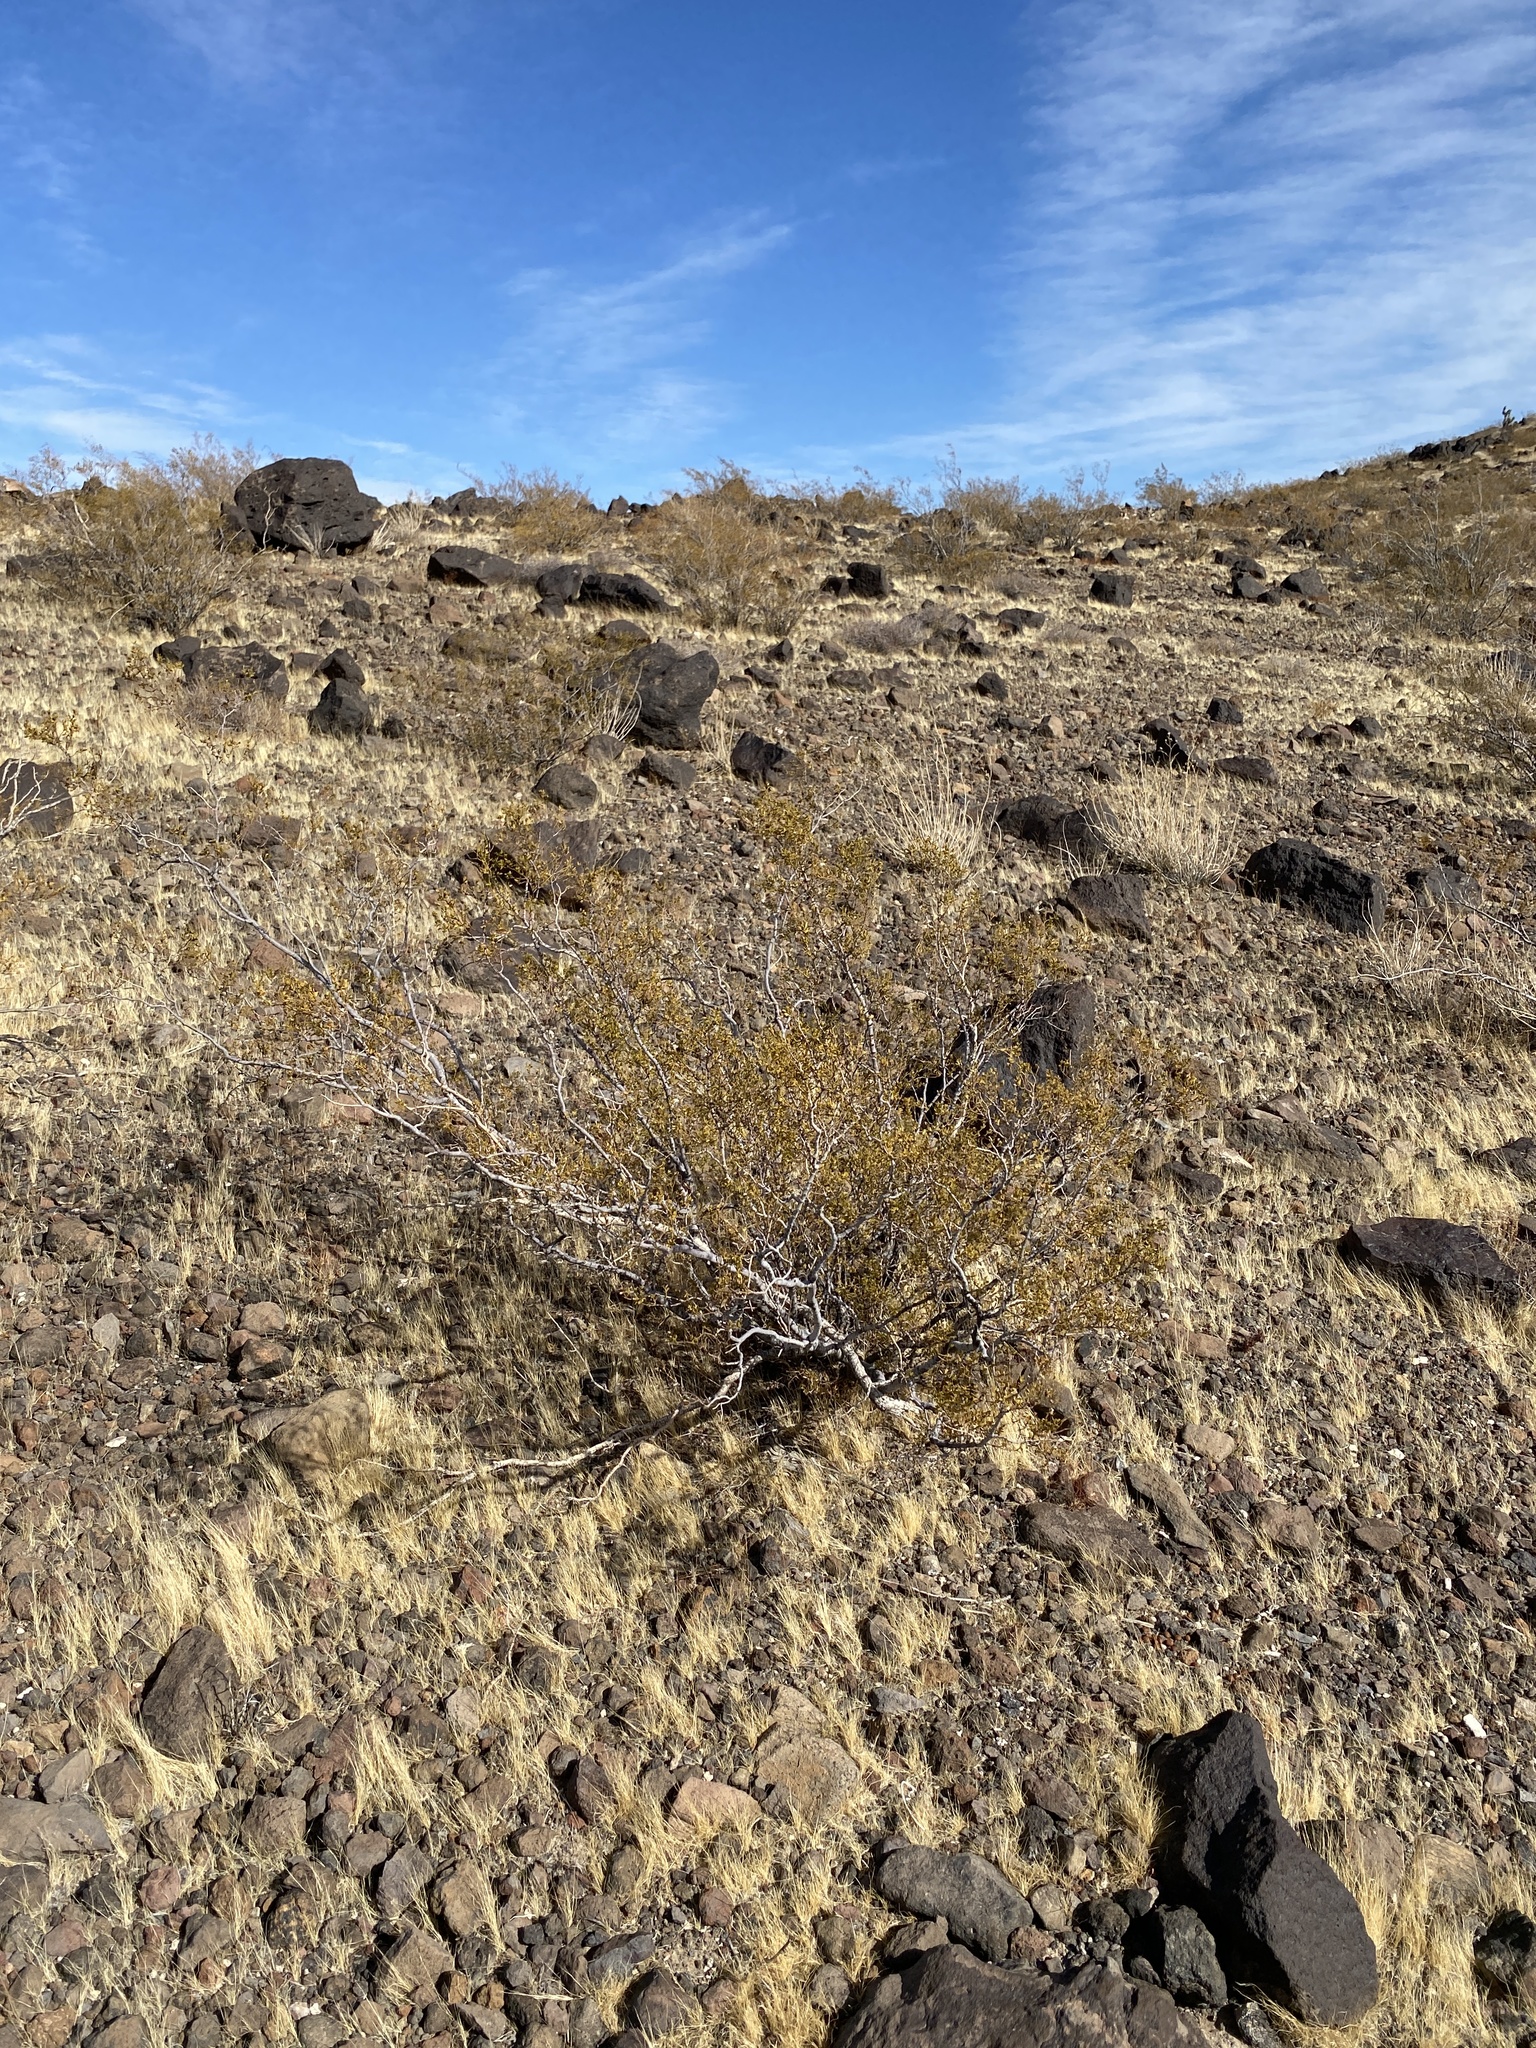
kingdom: Plantae
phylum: Tracheophyta
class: Magnoliopsida
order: Zygophyllales
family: Zygophyllaceae
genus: Larrea
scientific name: Larrea tridentata
